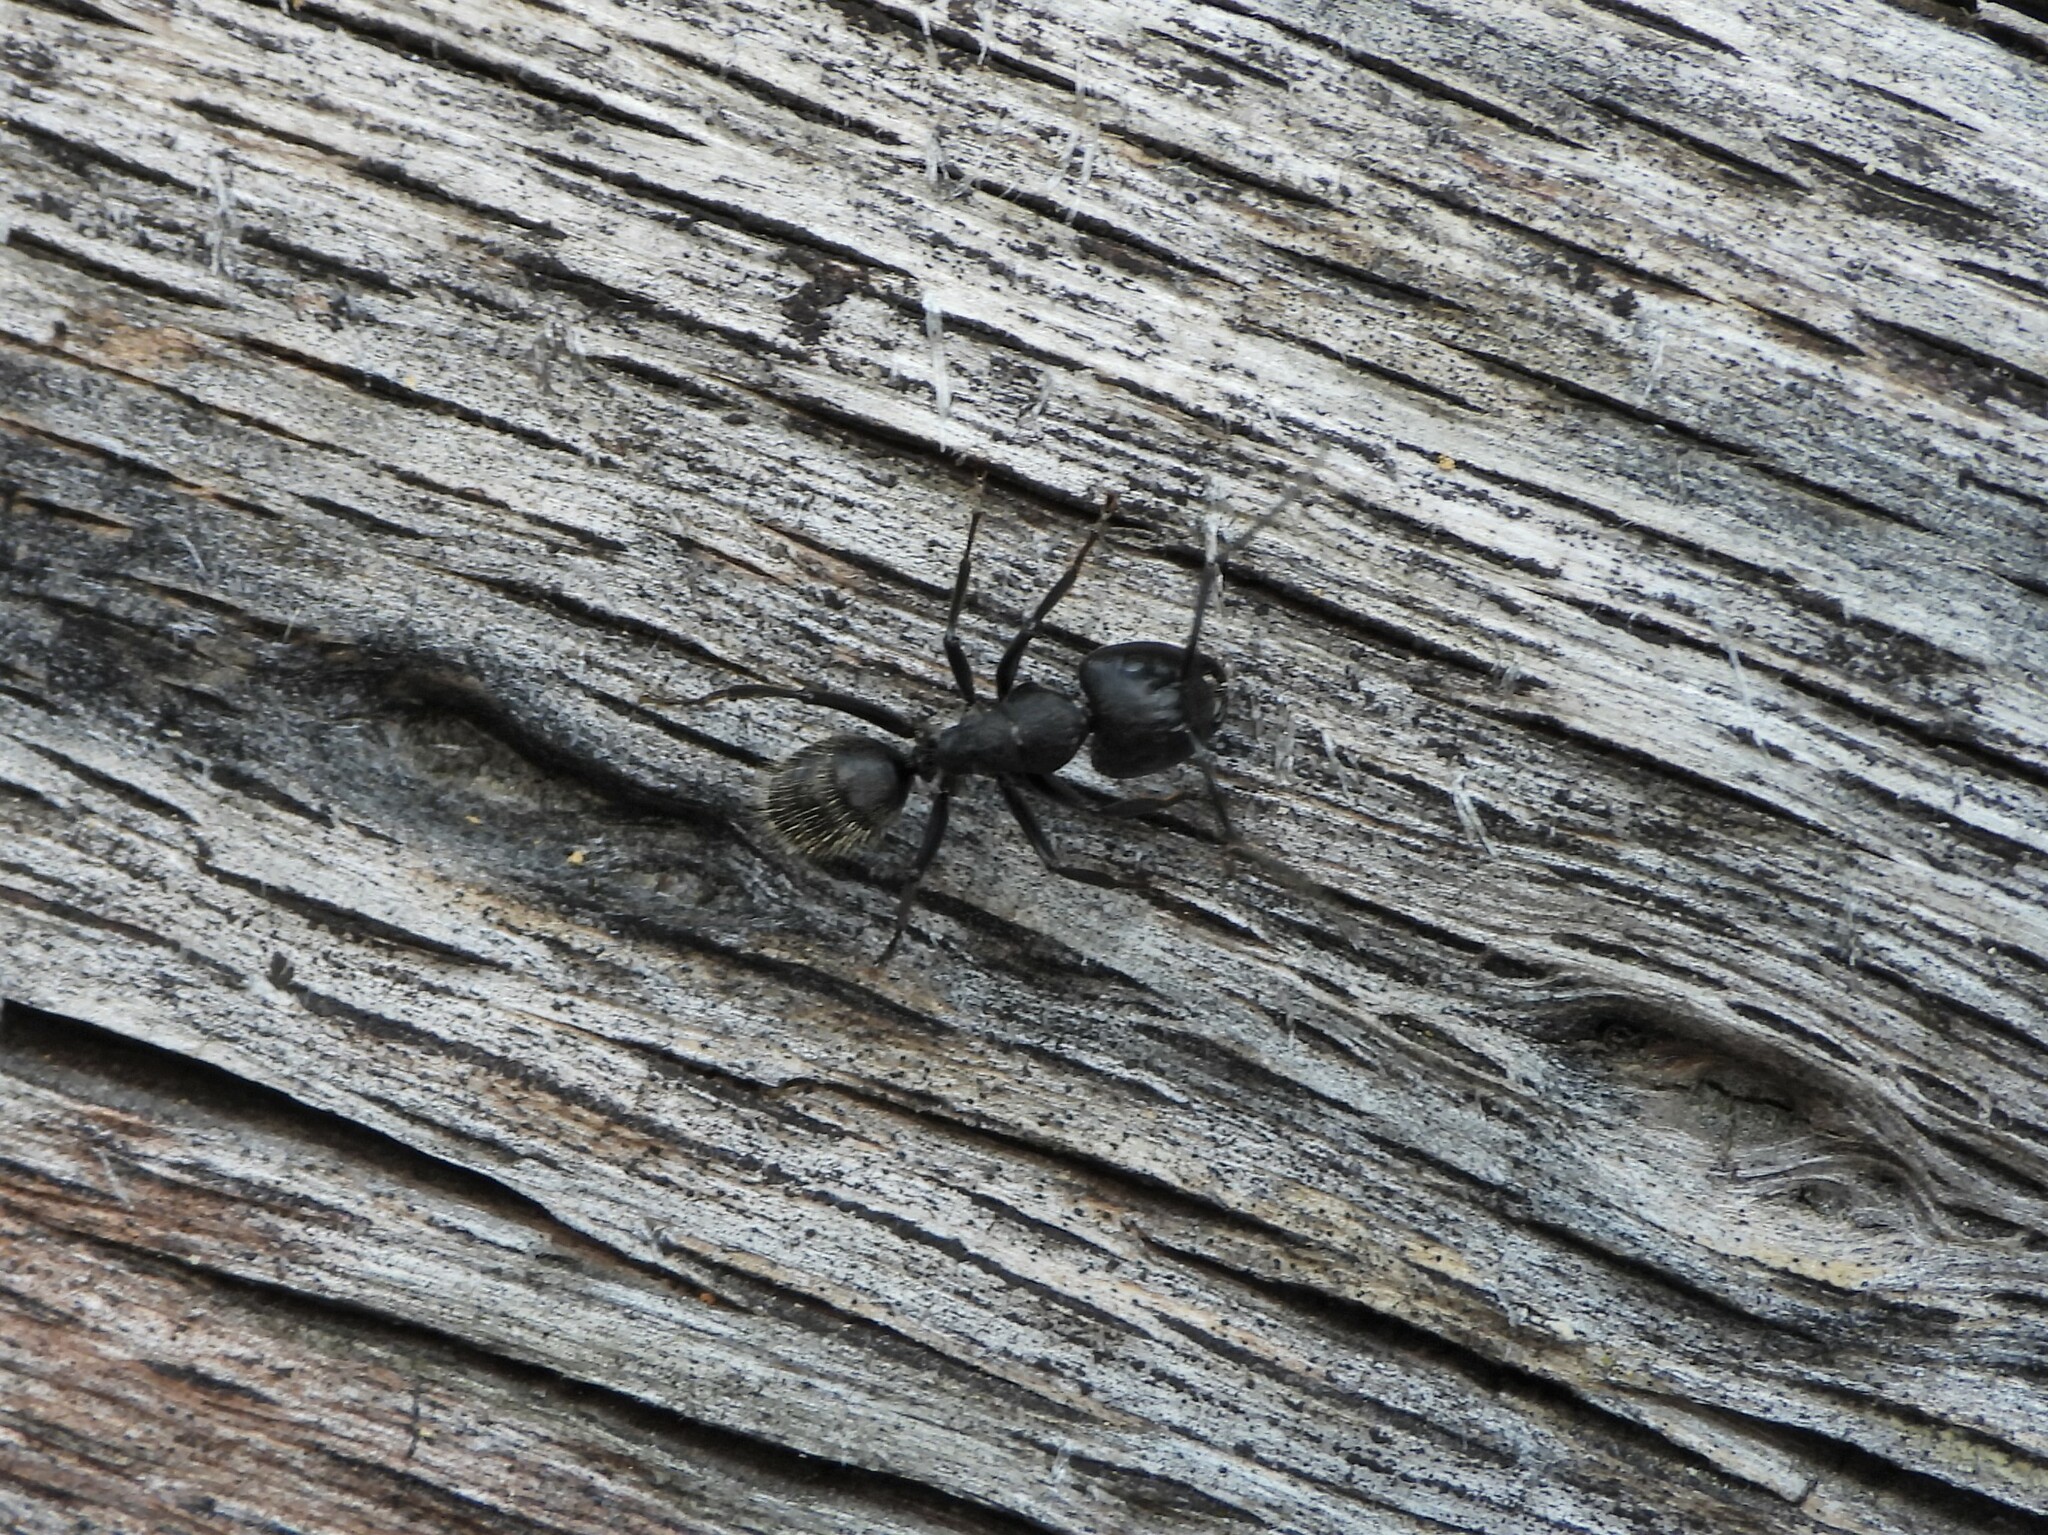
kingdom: Animalia
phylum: Arthropoda
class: Insecta
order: Hymenoptera
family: Formicidae
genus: Camponotus
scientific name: Camponotus vagus
